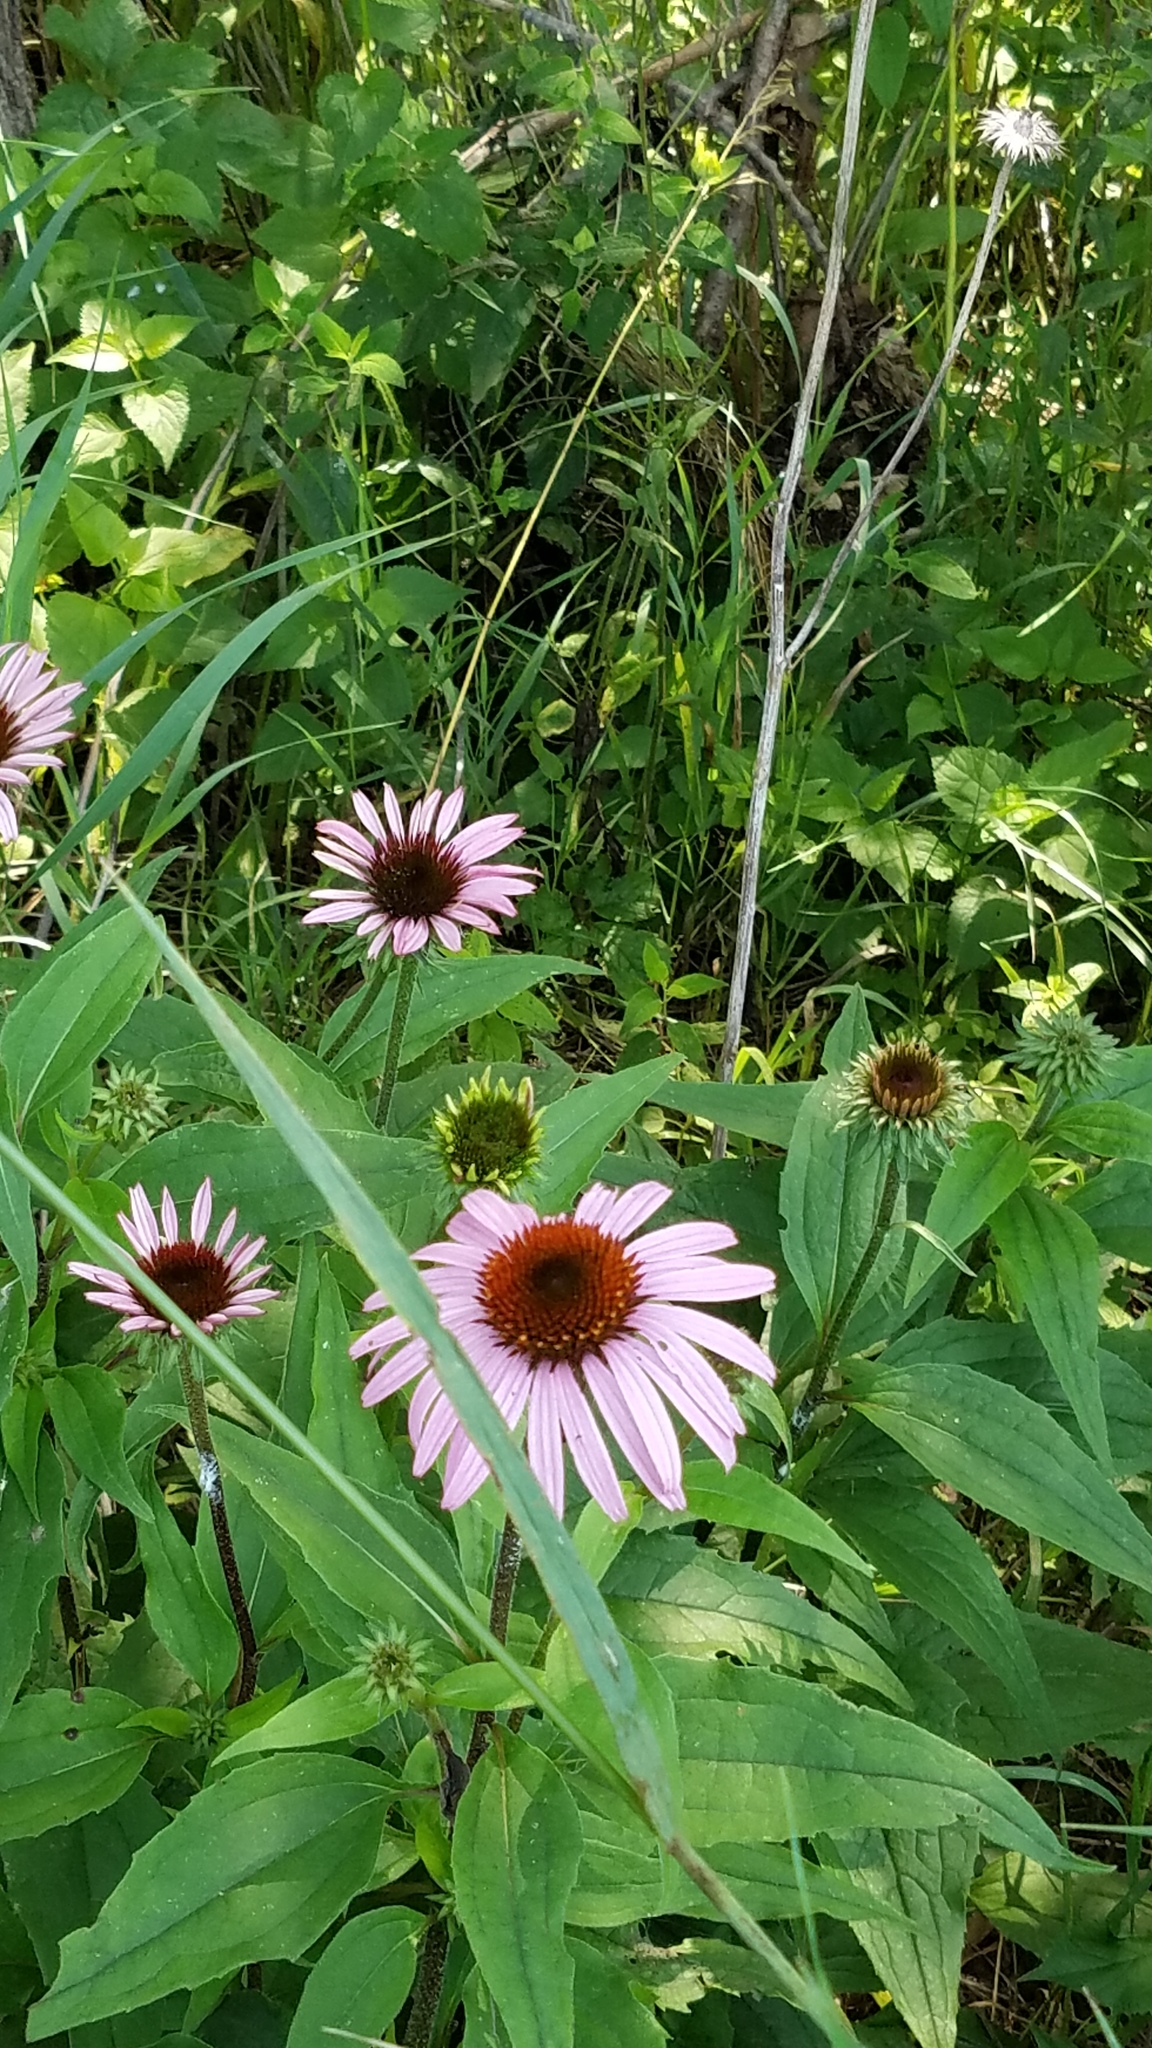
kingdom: Plantae
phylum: Tracheophyta
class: Magnoliopsida
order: Asterales
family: Asteraceae
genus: Echinacea
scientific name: Echinacea purpurea
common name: Broad-leaved purple coneflower
